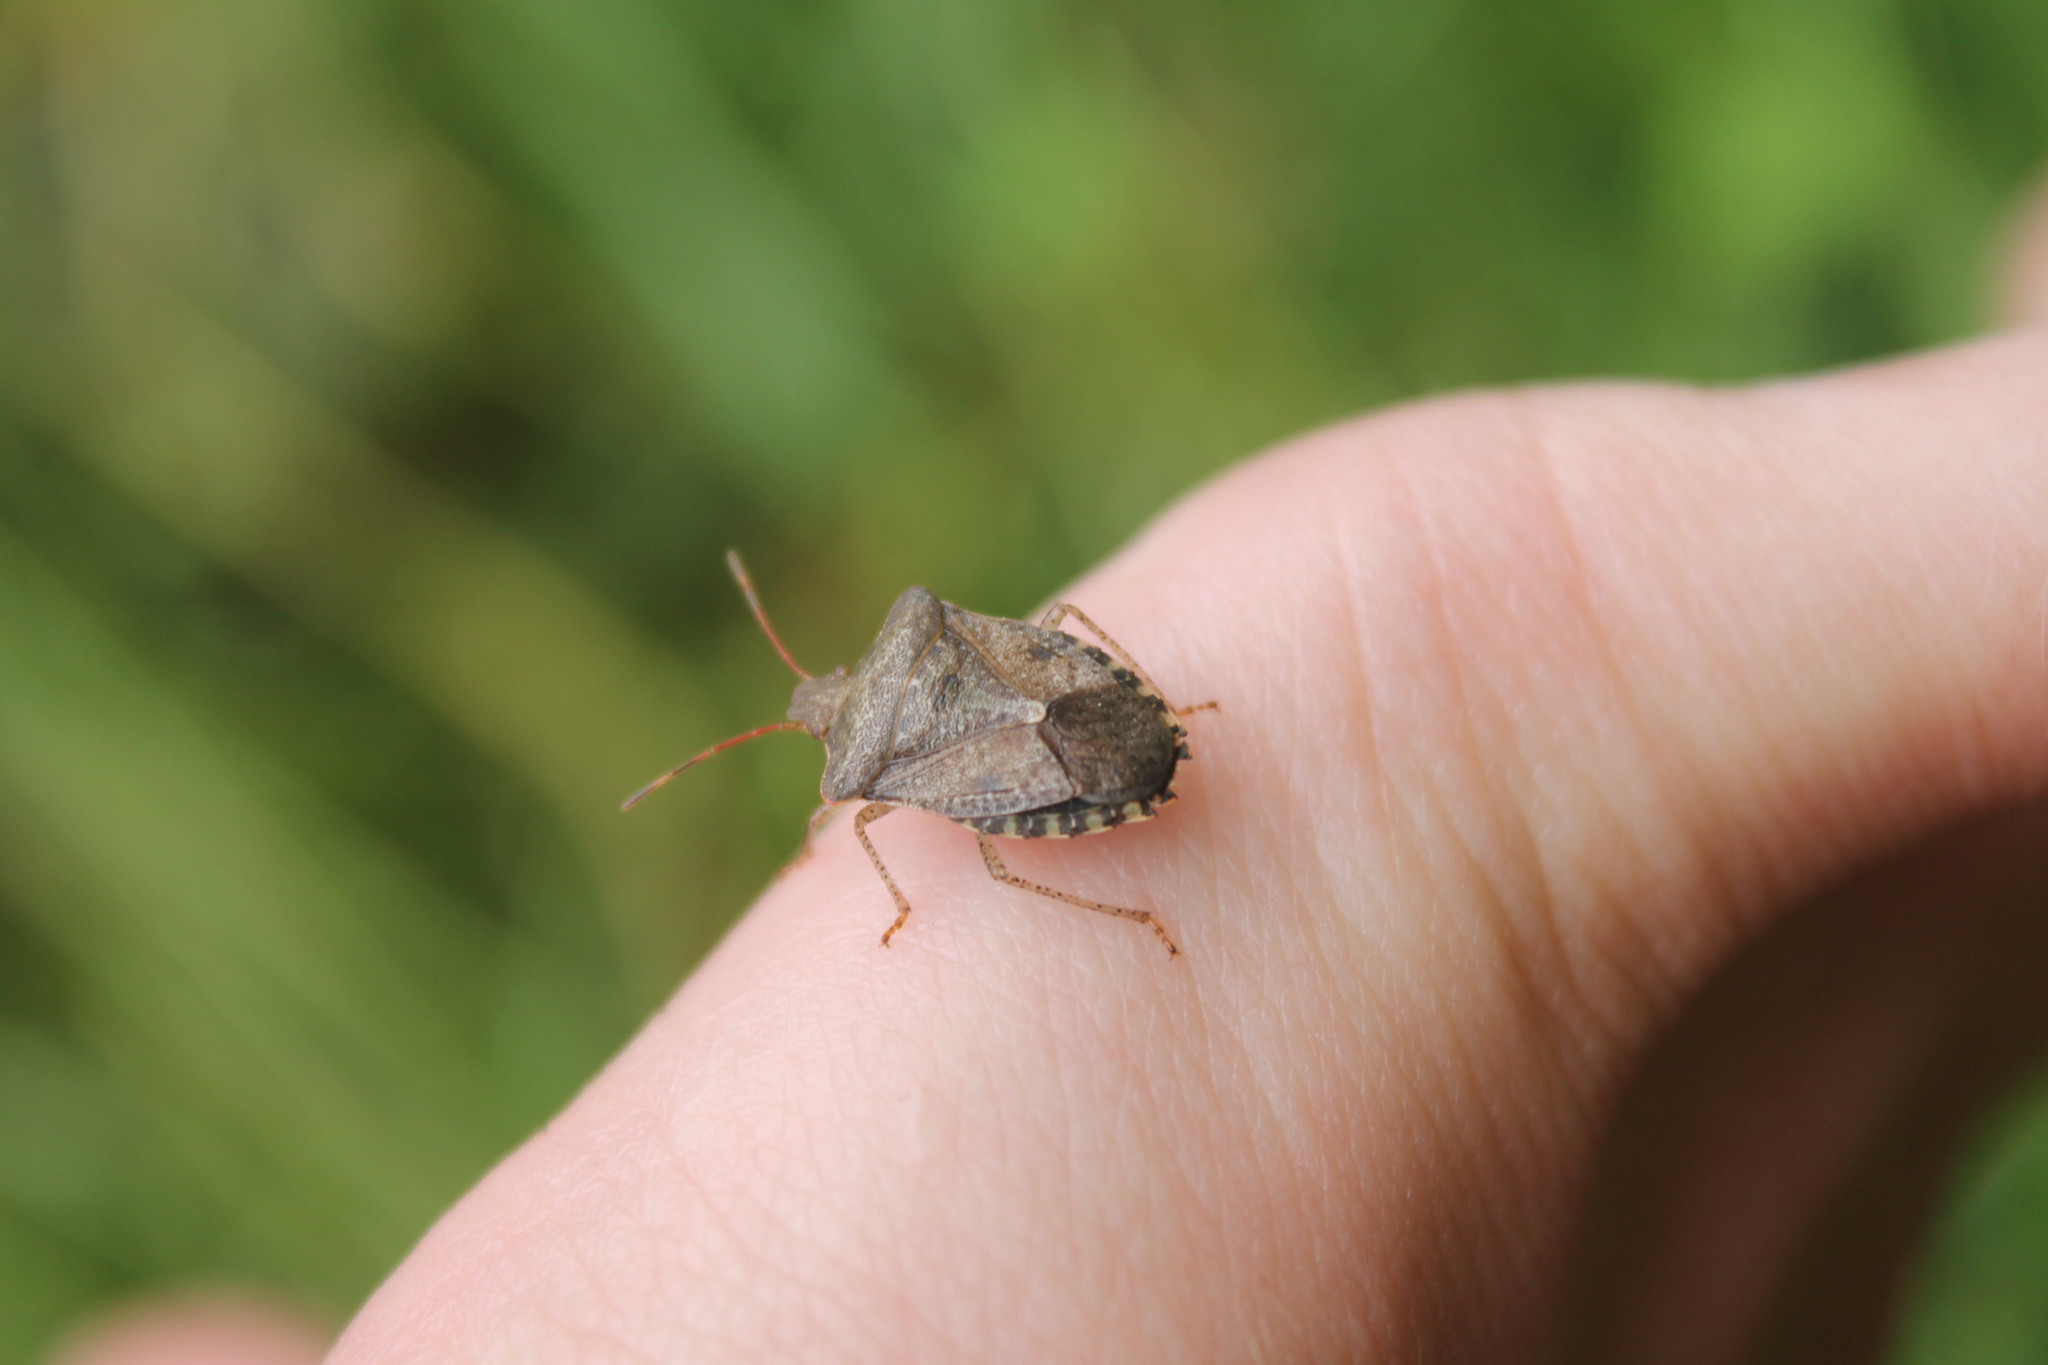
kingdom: Animalia
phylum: Arthropoda
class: Insecta
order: Hemiptera
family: Pentatomidae
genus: Euschistus
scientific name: Euschistus servus
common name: Brown stink bug
